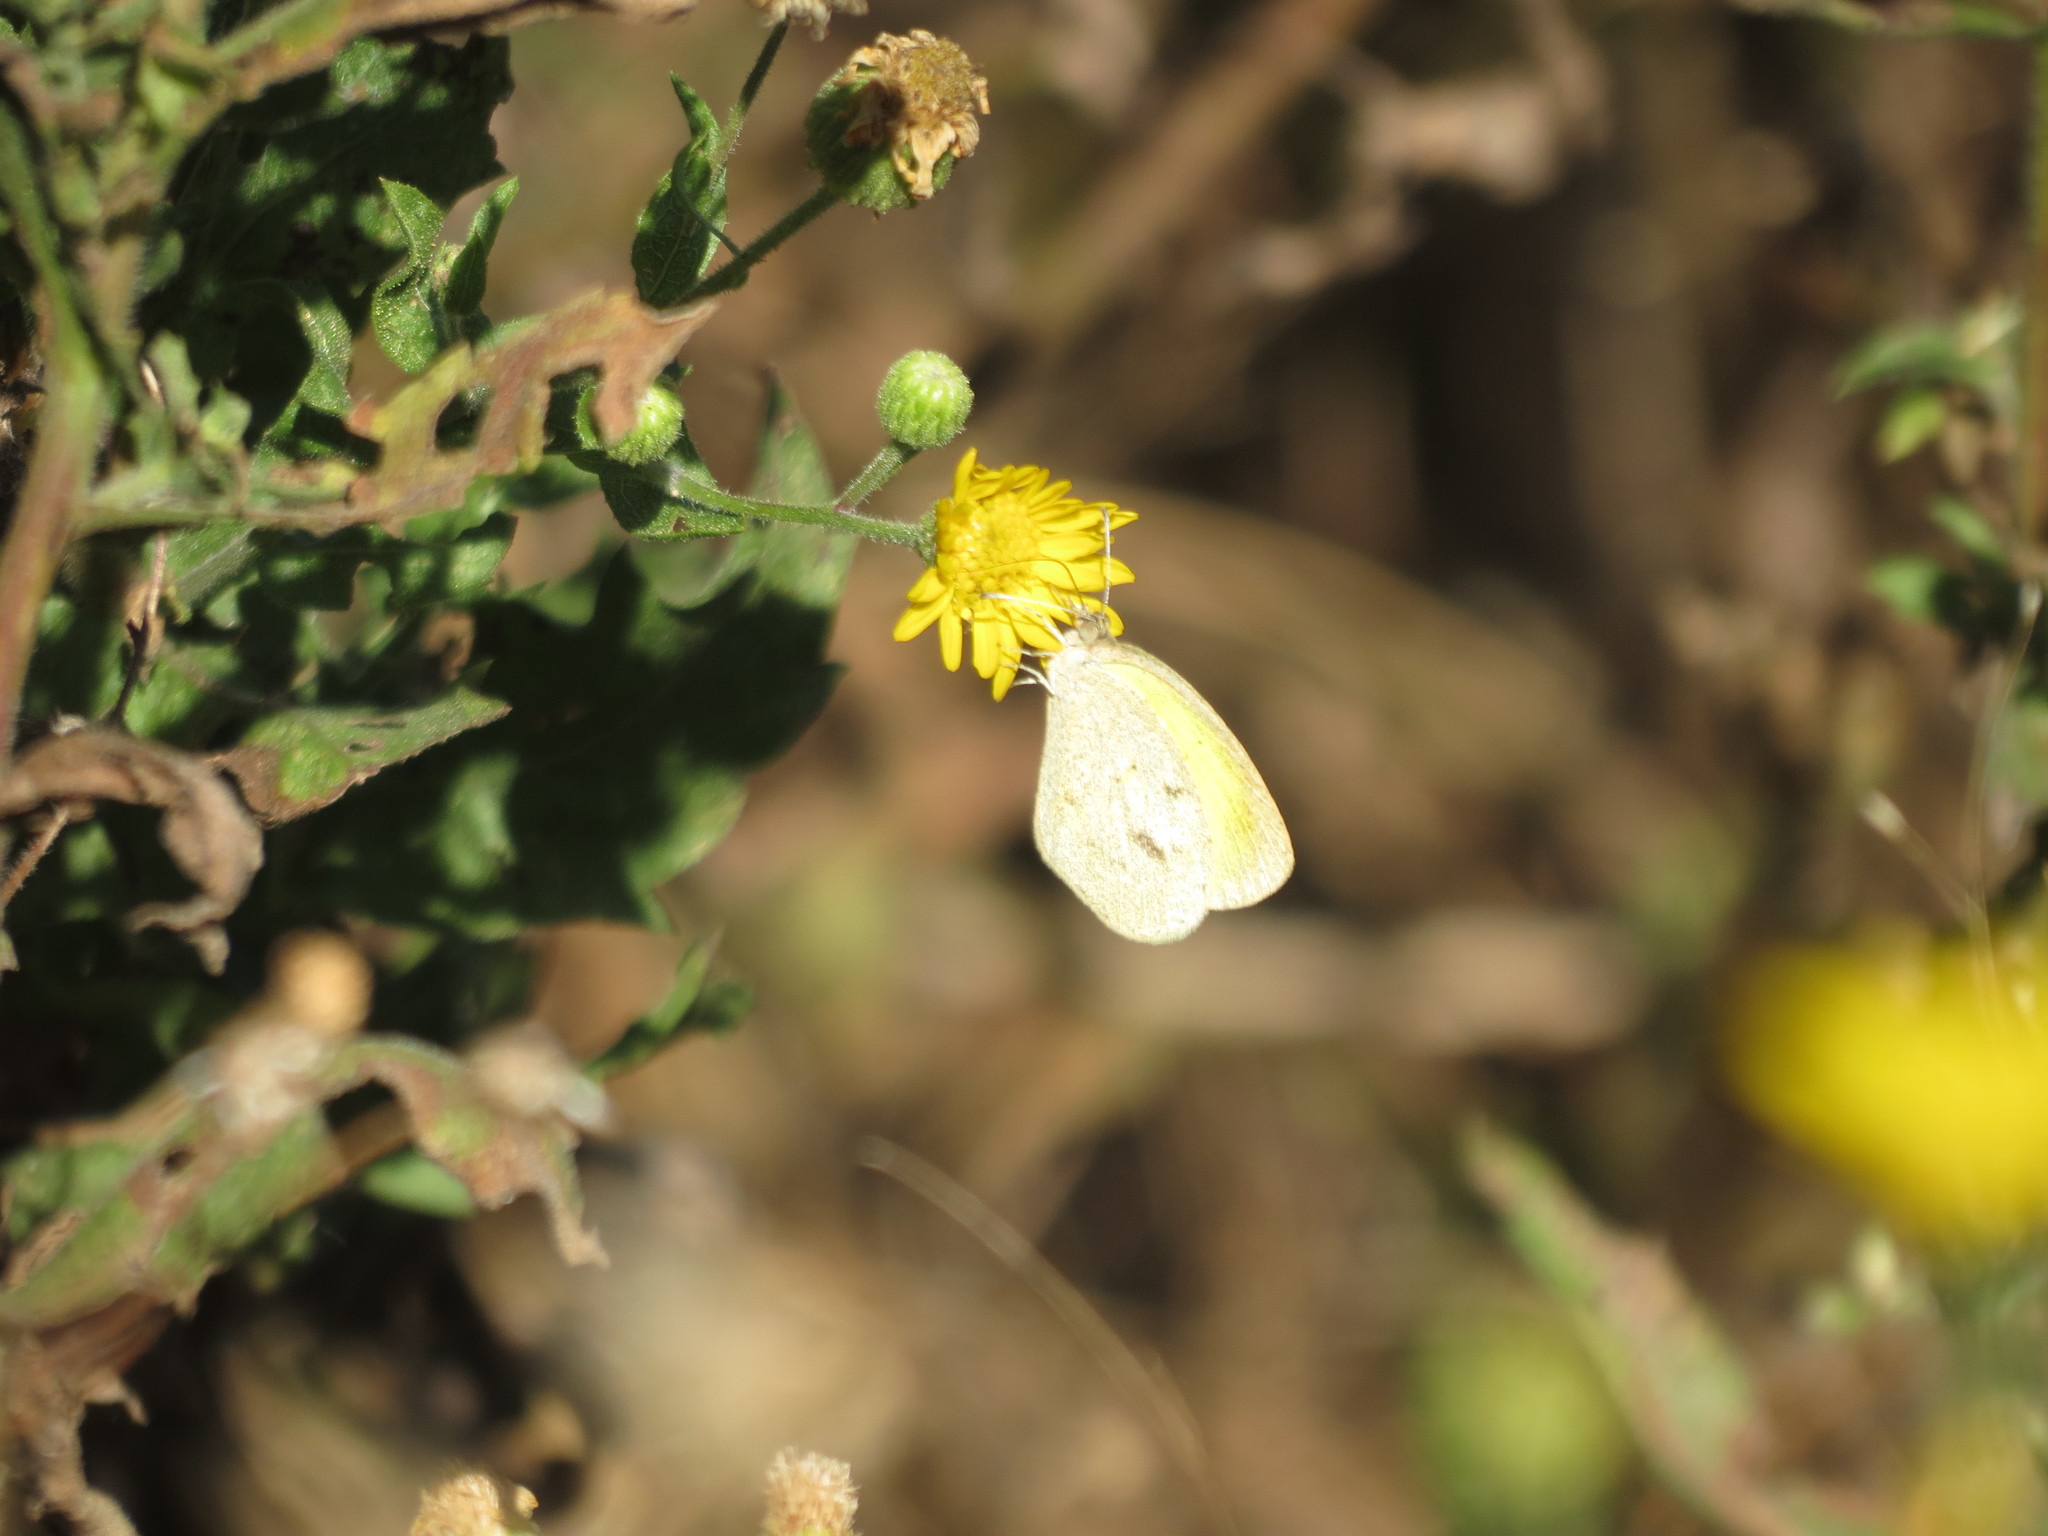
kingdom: Animalia
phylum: Arthropoda
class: Insecta
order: Lepidoptera
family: Pieridae
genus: Abaeis
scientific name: Abaeis nicippe
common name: Sleepy orange
